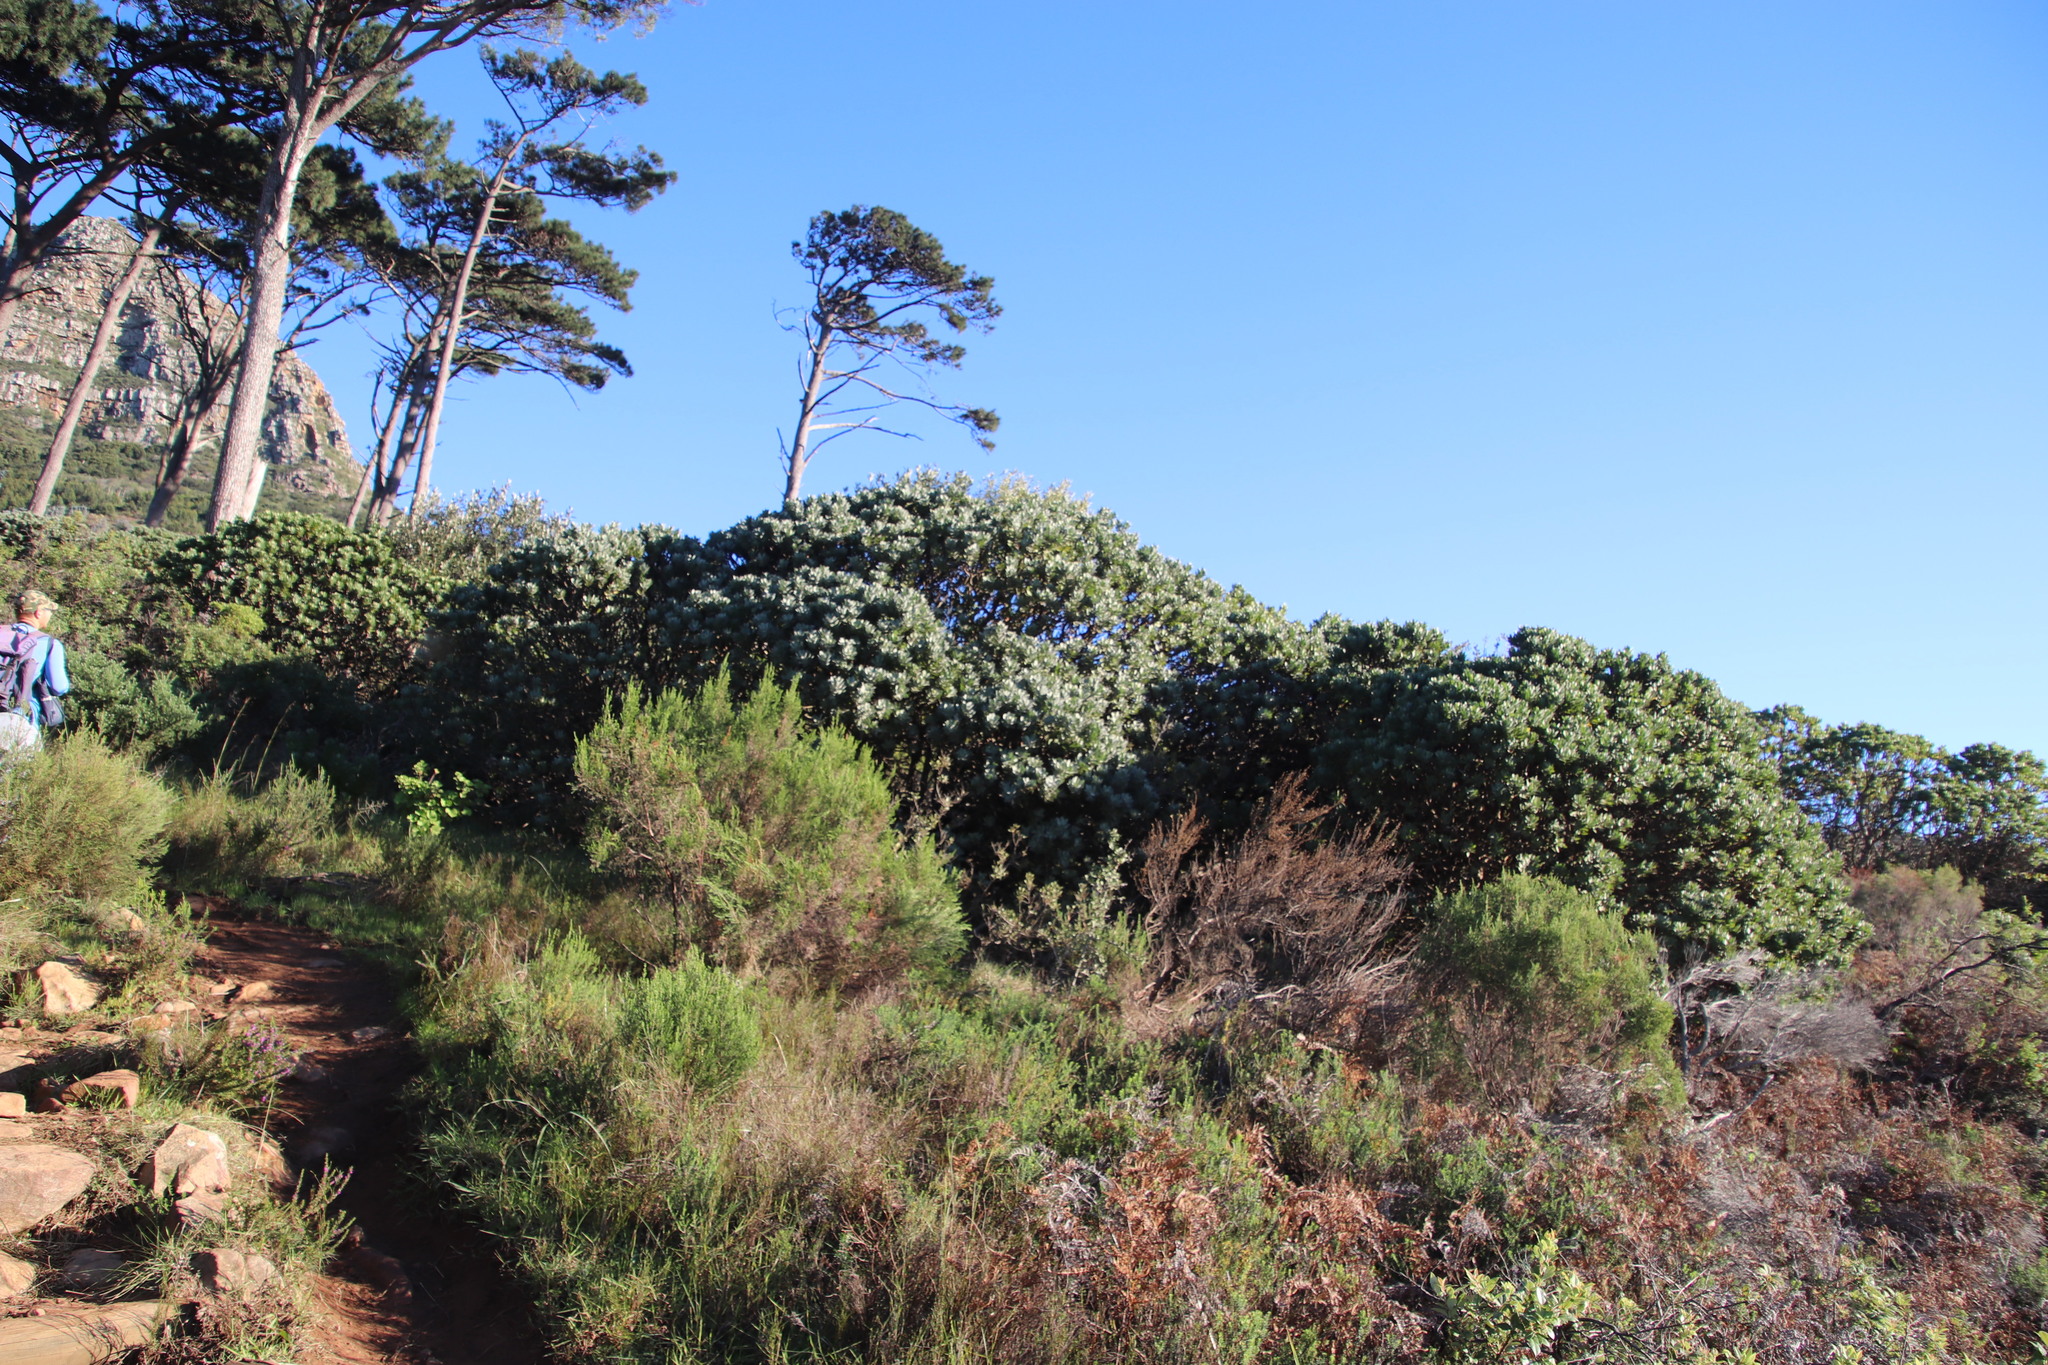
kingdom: Plantae
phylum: Tracheophyta
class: Magnoliopsida
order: Proteales
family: Proteaceae
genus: Leucospermum
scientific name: Leucospermum conocarpodendron
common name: Tree pincushion
